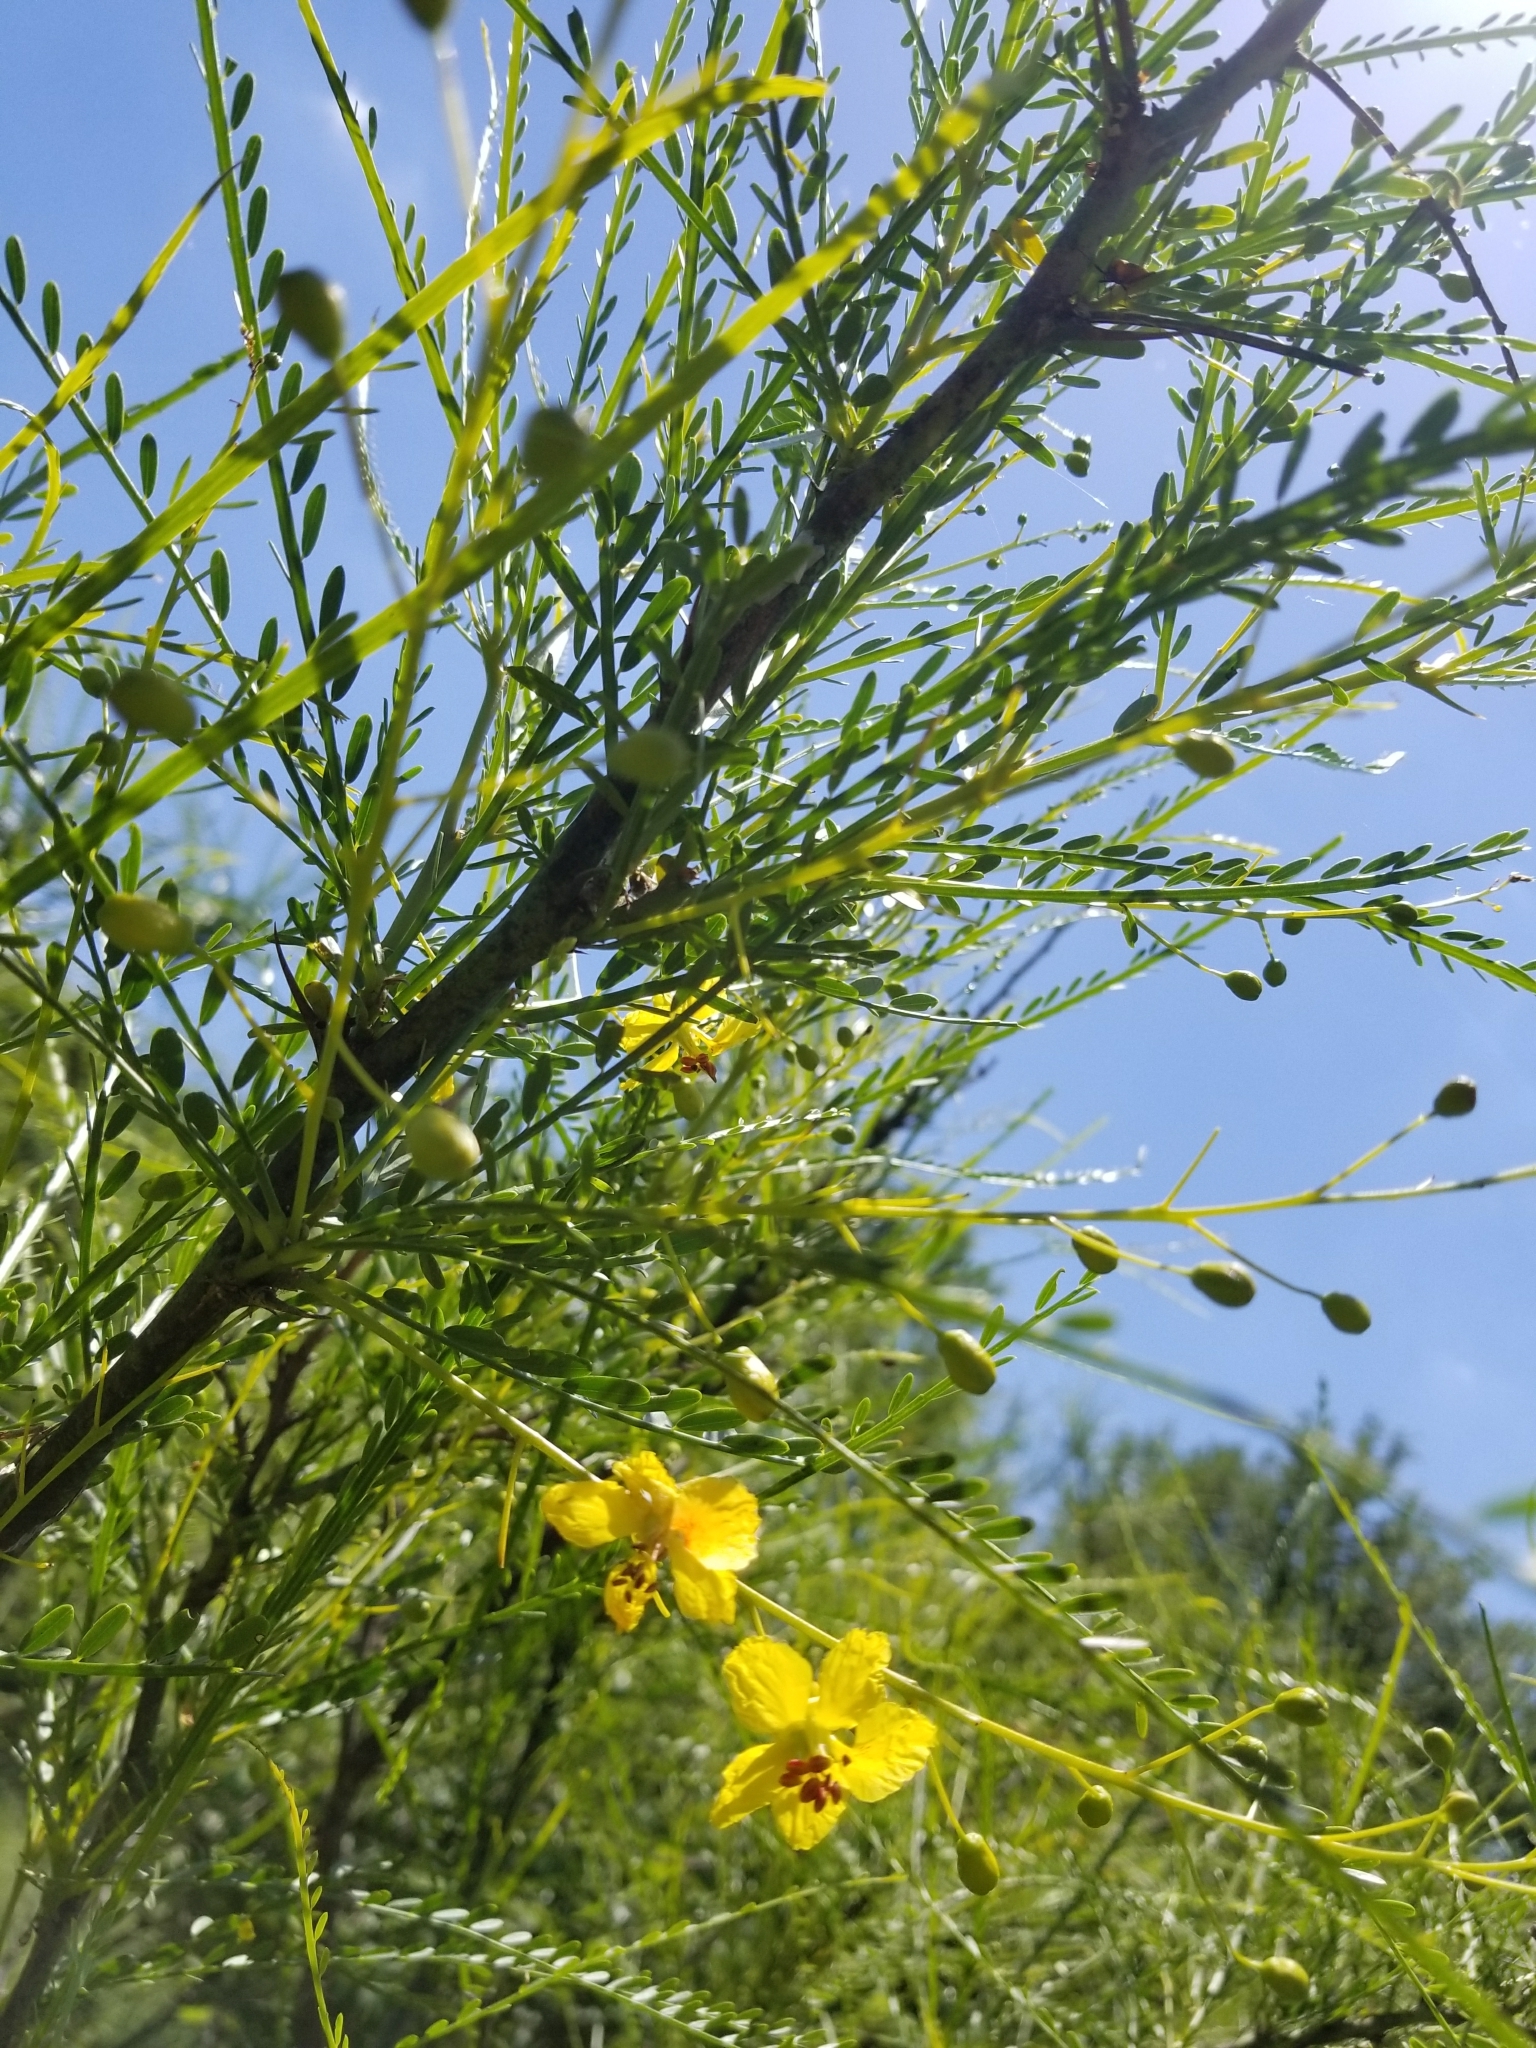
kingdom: Plantae
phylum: Tracheophyta
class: Magnoliopsida
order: Fabales
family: Fabaceae
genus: Parkinsonia
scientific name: Parkinsonia aculeata
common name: Jerusalem thorn
